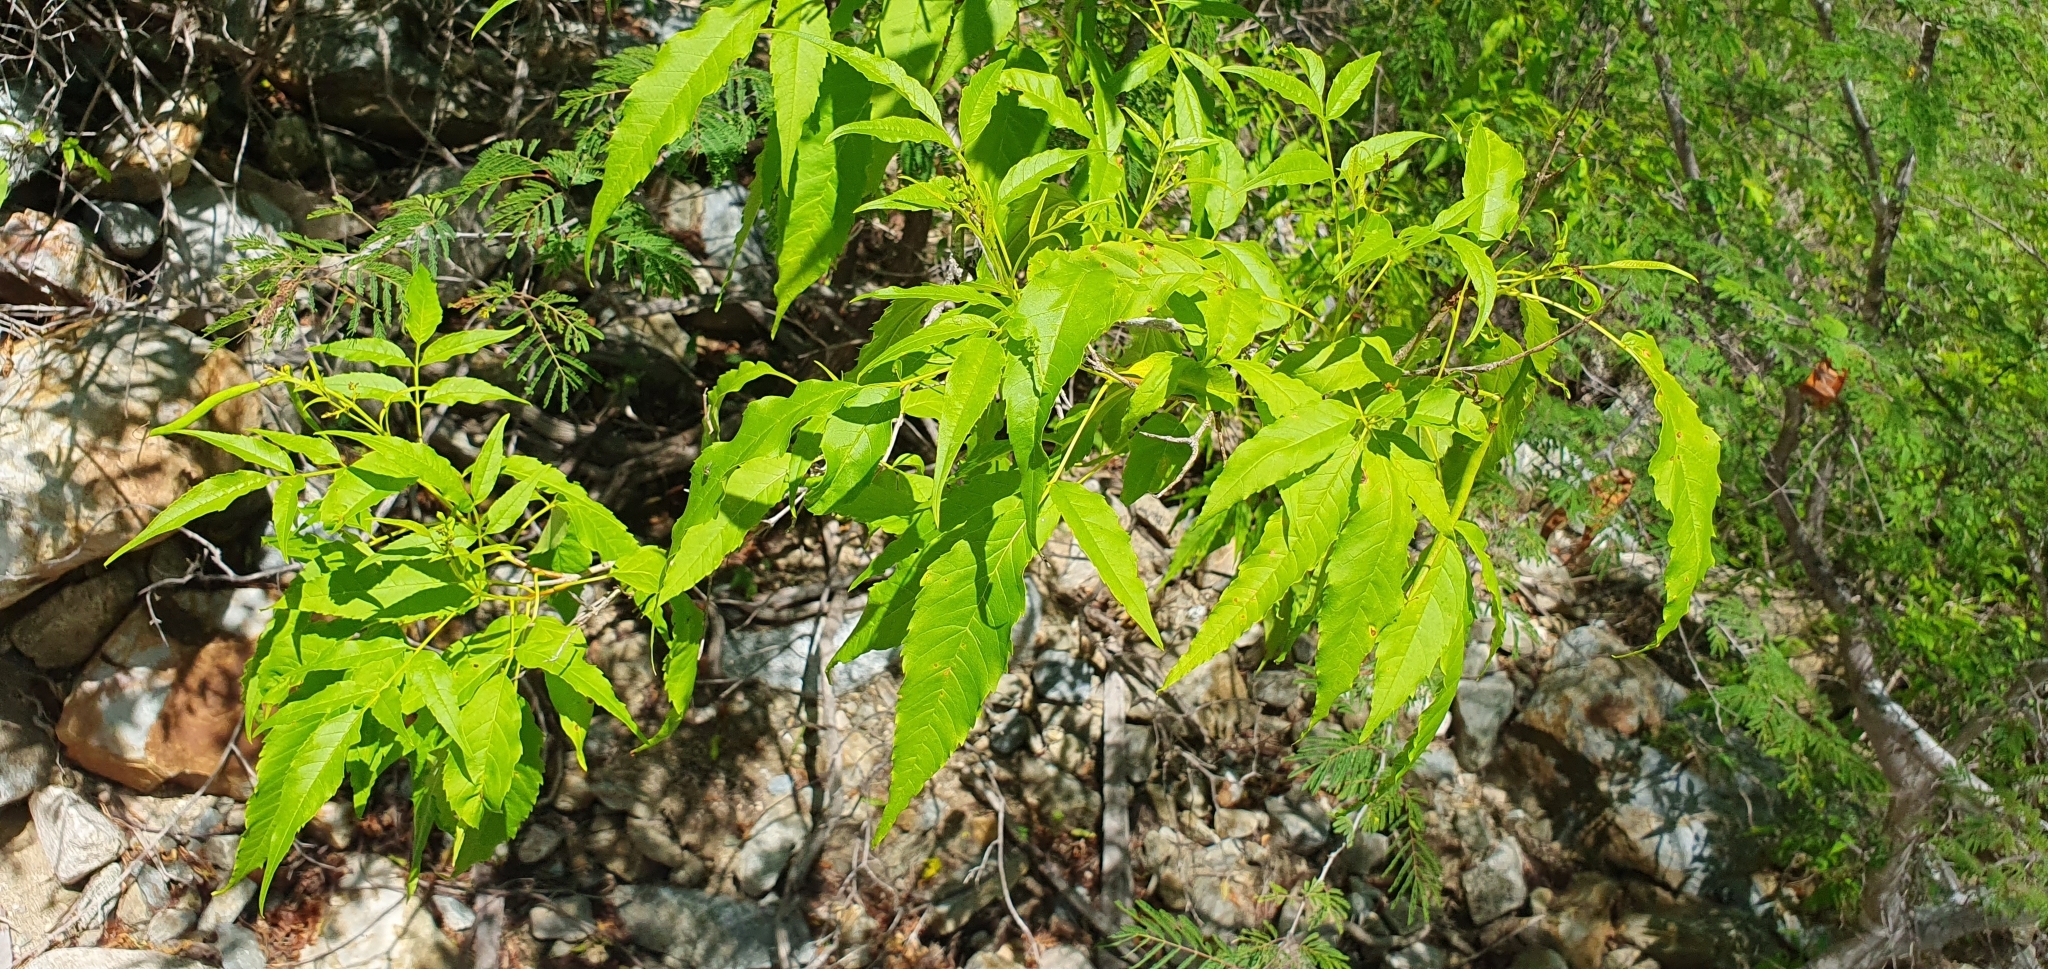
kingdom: Plantae
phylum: Tracheophyta
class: Magnoliopsida
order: Lamiales
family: Bignoniaceae
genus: Tecoma
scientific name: Tecoma stans
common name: Yellow trumpetbush
